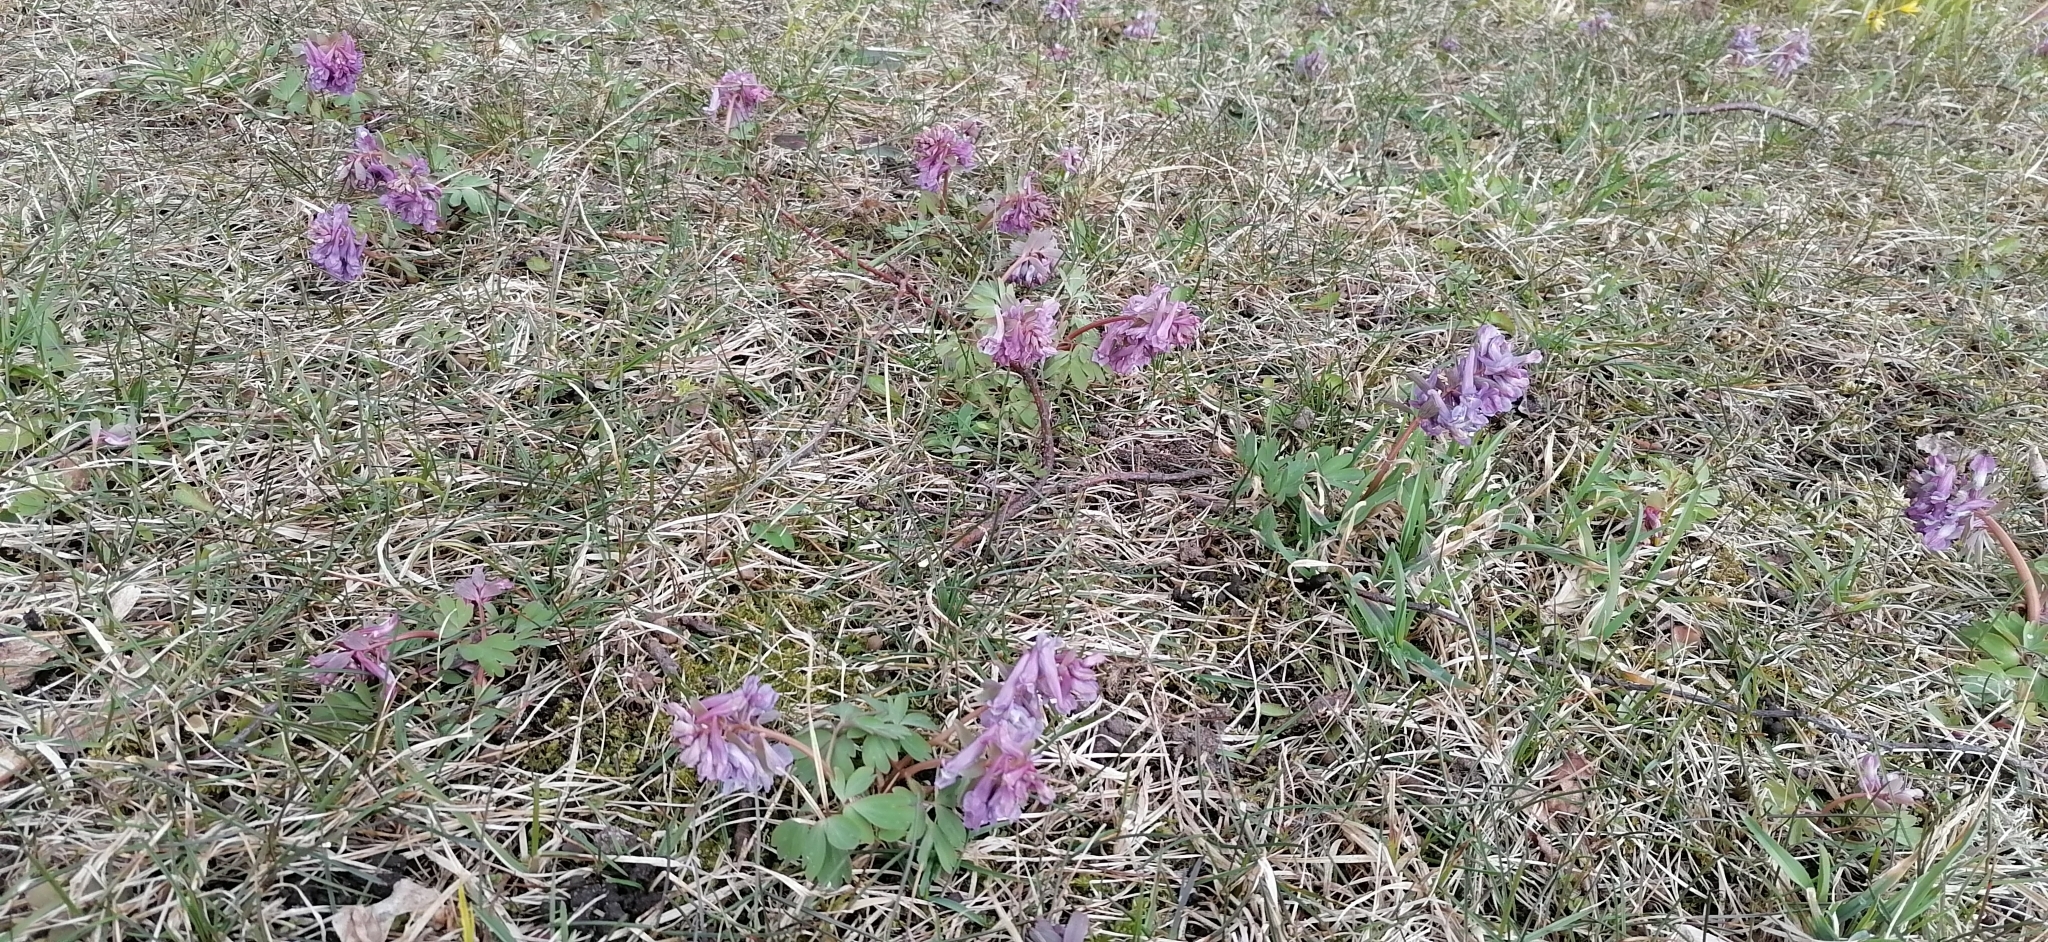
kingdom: Plantae
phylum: Tracheophyta
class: Magnoliopsida
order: Ranunculales
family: Papaveraceae
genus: Corydalis
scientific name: Corydalis solida
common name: Bird-in-a-bush
